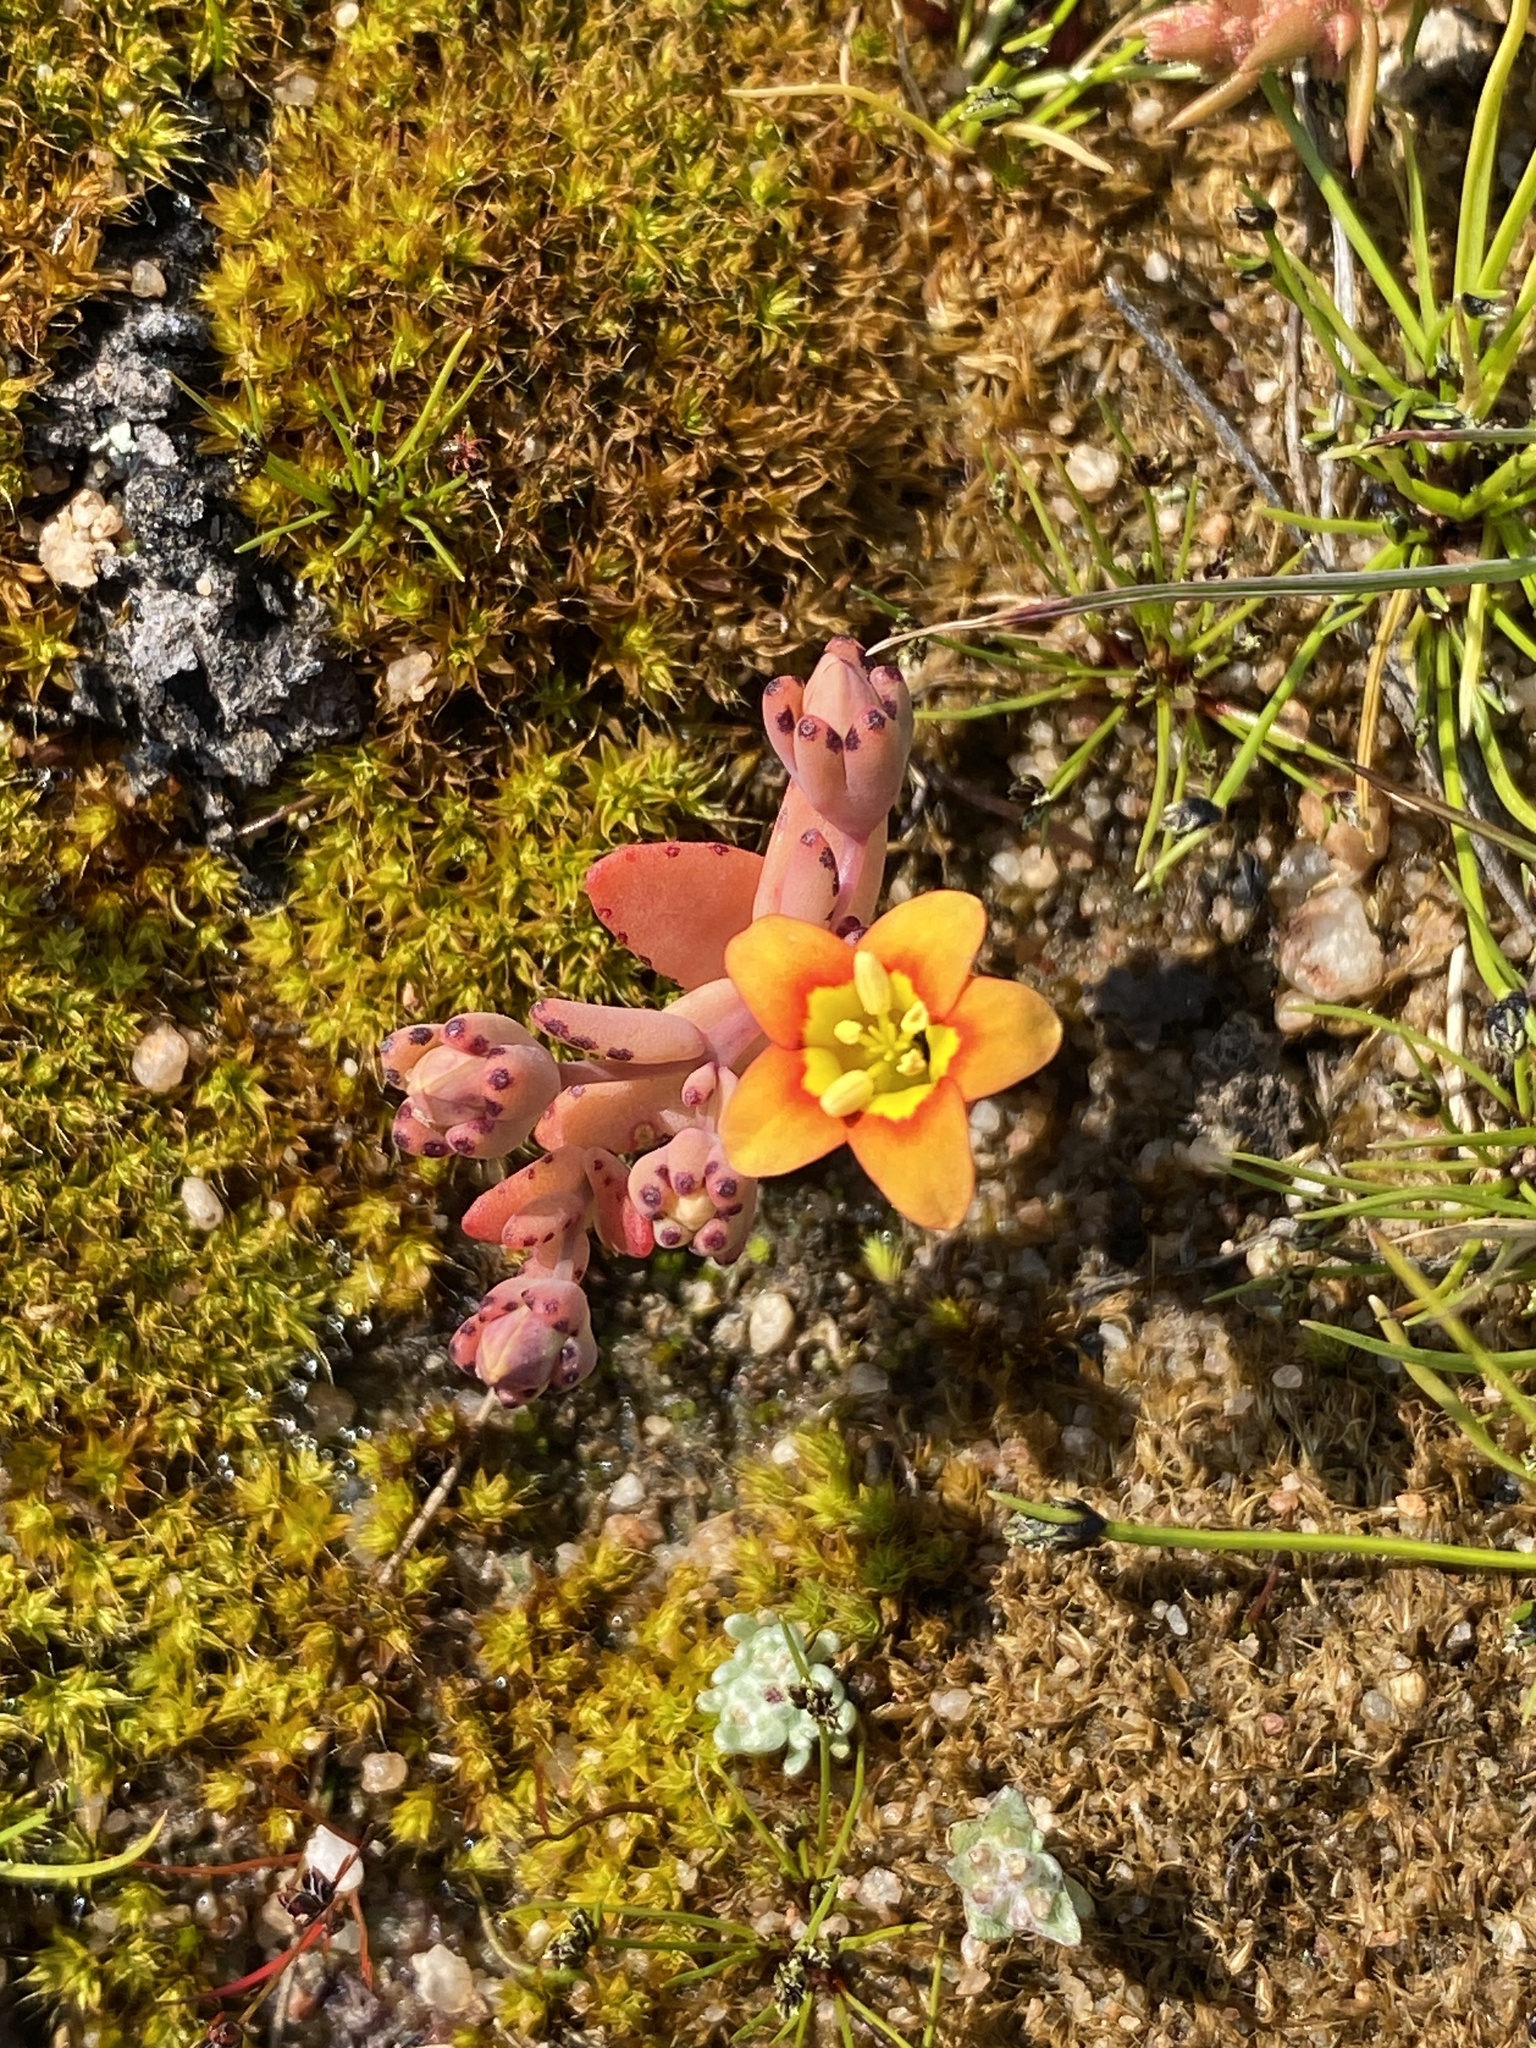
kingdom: Plantae
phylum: Tracheophyta
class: Magnoliopsida
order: Saxifragales
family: Crassulaceae
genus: Crassula
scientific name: Crassula dichotoma
